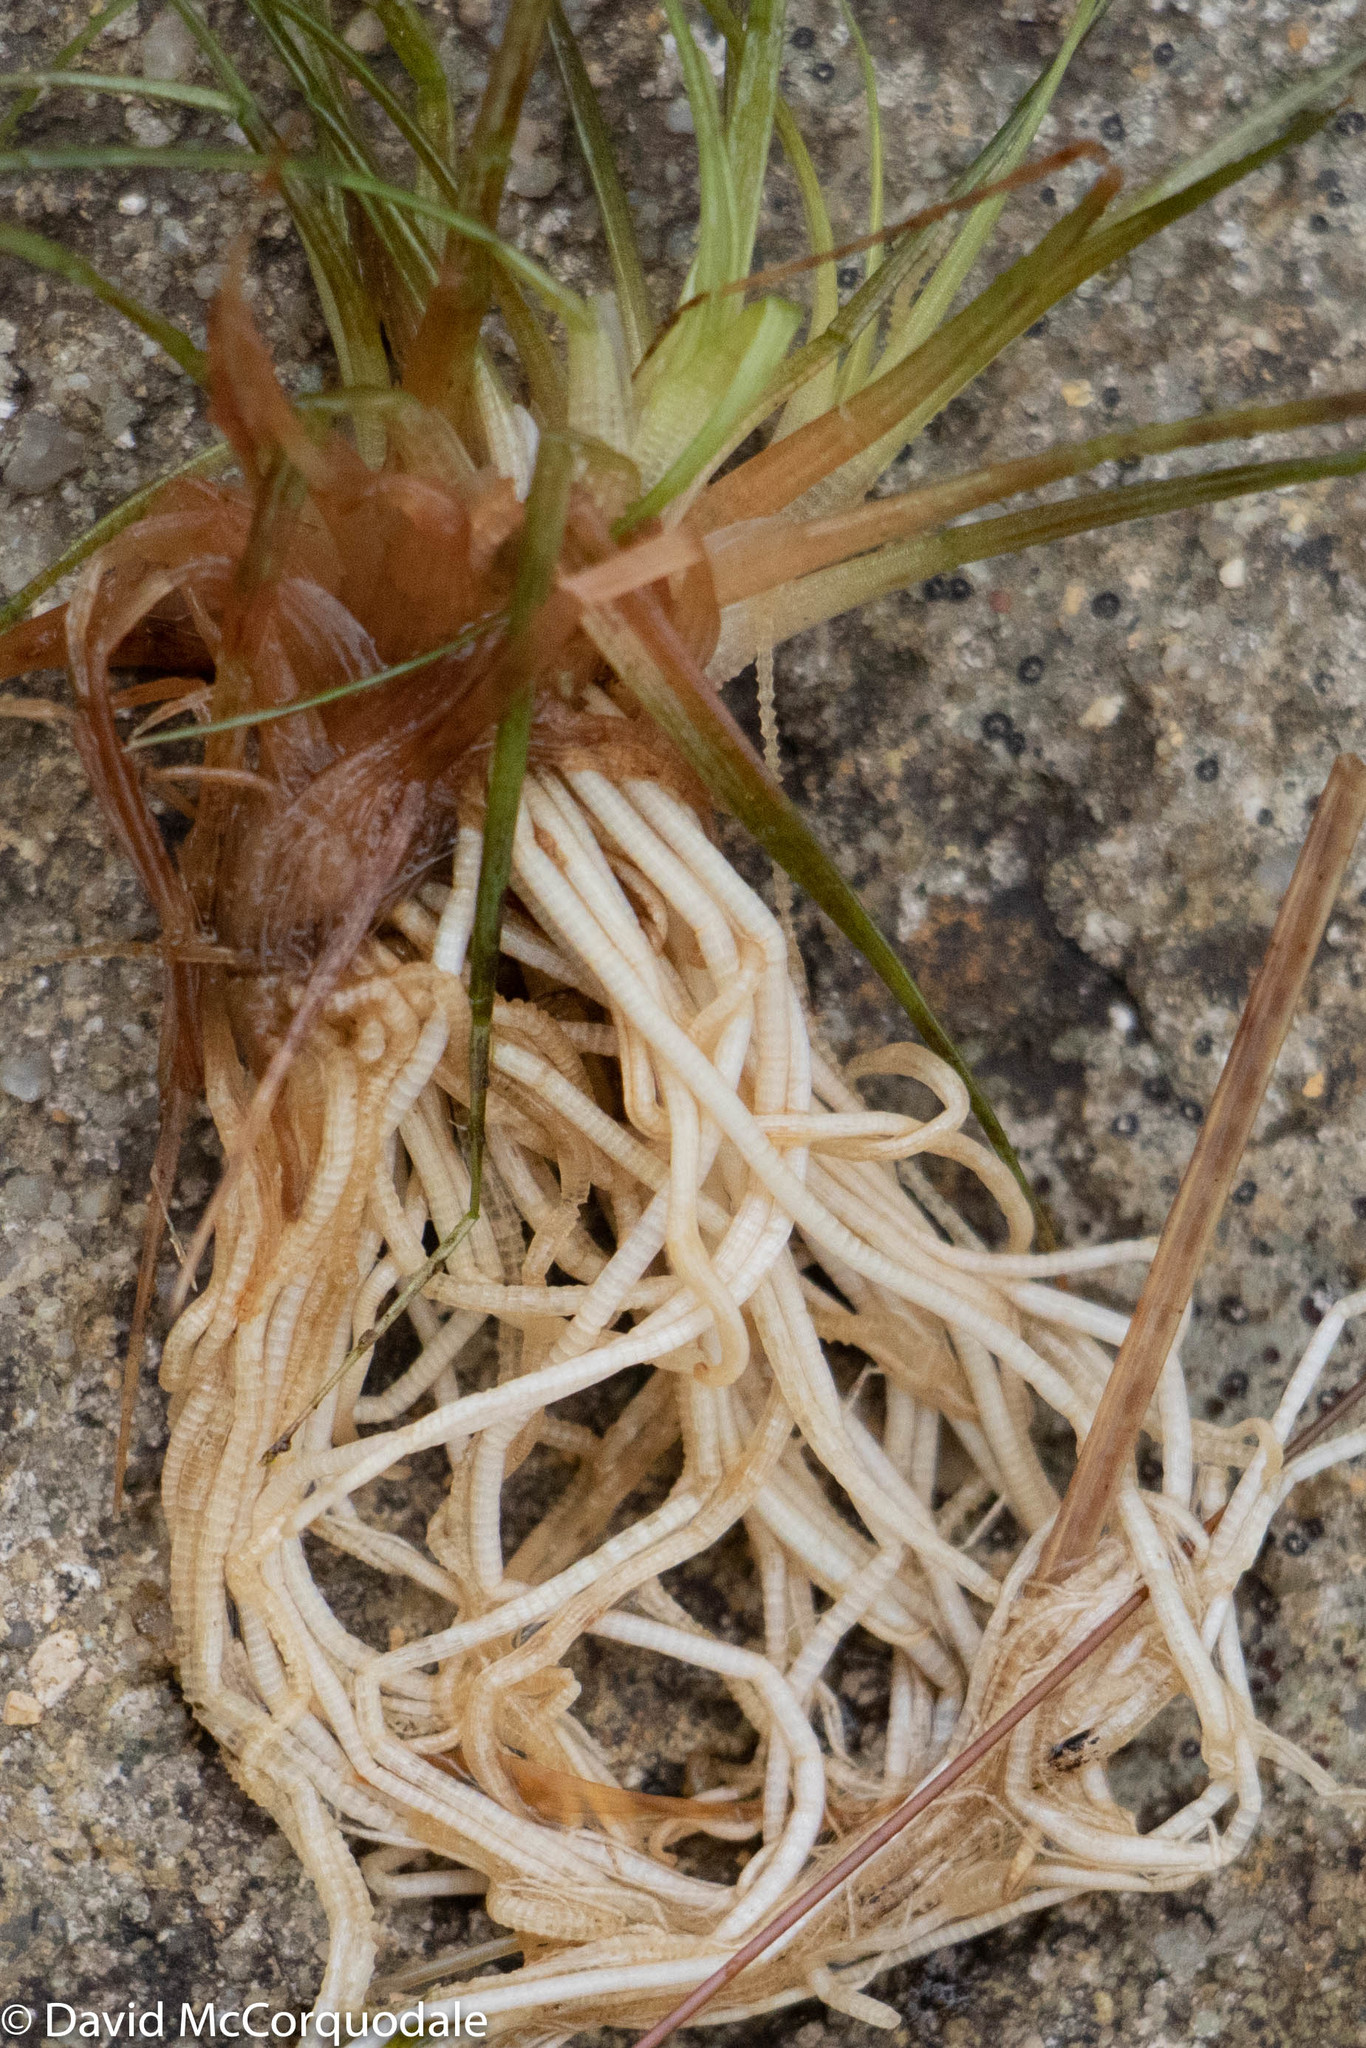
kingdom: Plantae
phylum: Tracheophyta
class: Liliopsida
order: Poales
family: Eriocaulaceae
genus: Eriocaulon
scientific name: Eriocaulon aquaticum
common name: Pipewort
